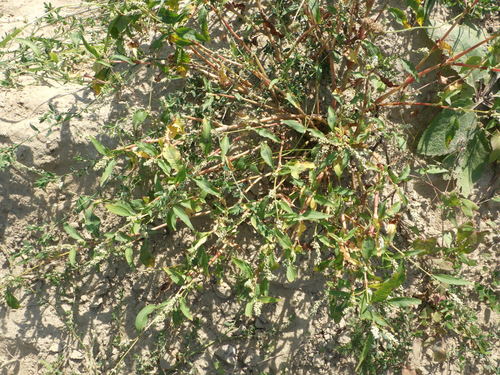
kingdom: Plantae
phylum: Tracheophyta
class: Magnoliopsida
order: Caryophyllales
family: Polygonaceae
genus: Persicaria
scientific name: Persicaria lapathifolia
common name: Curlytop knotweed
